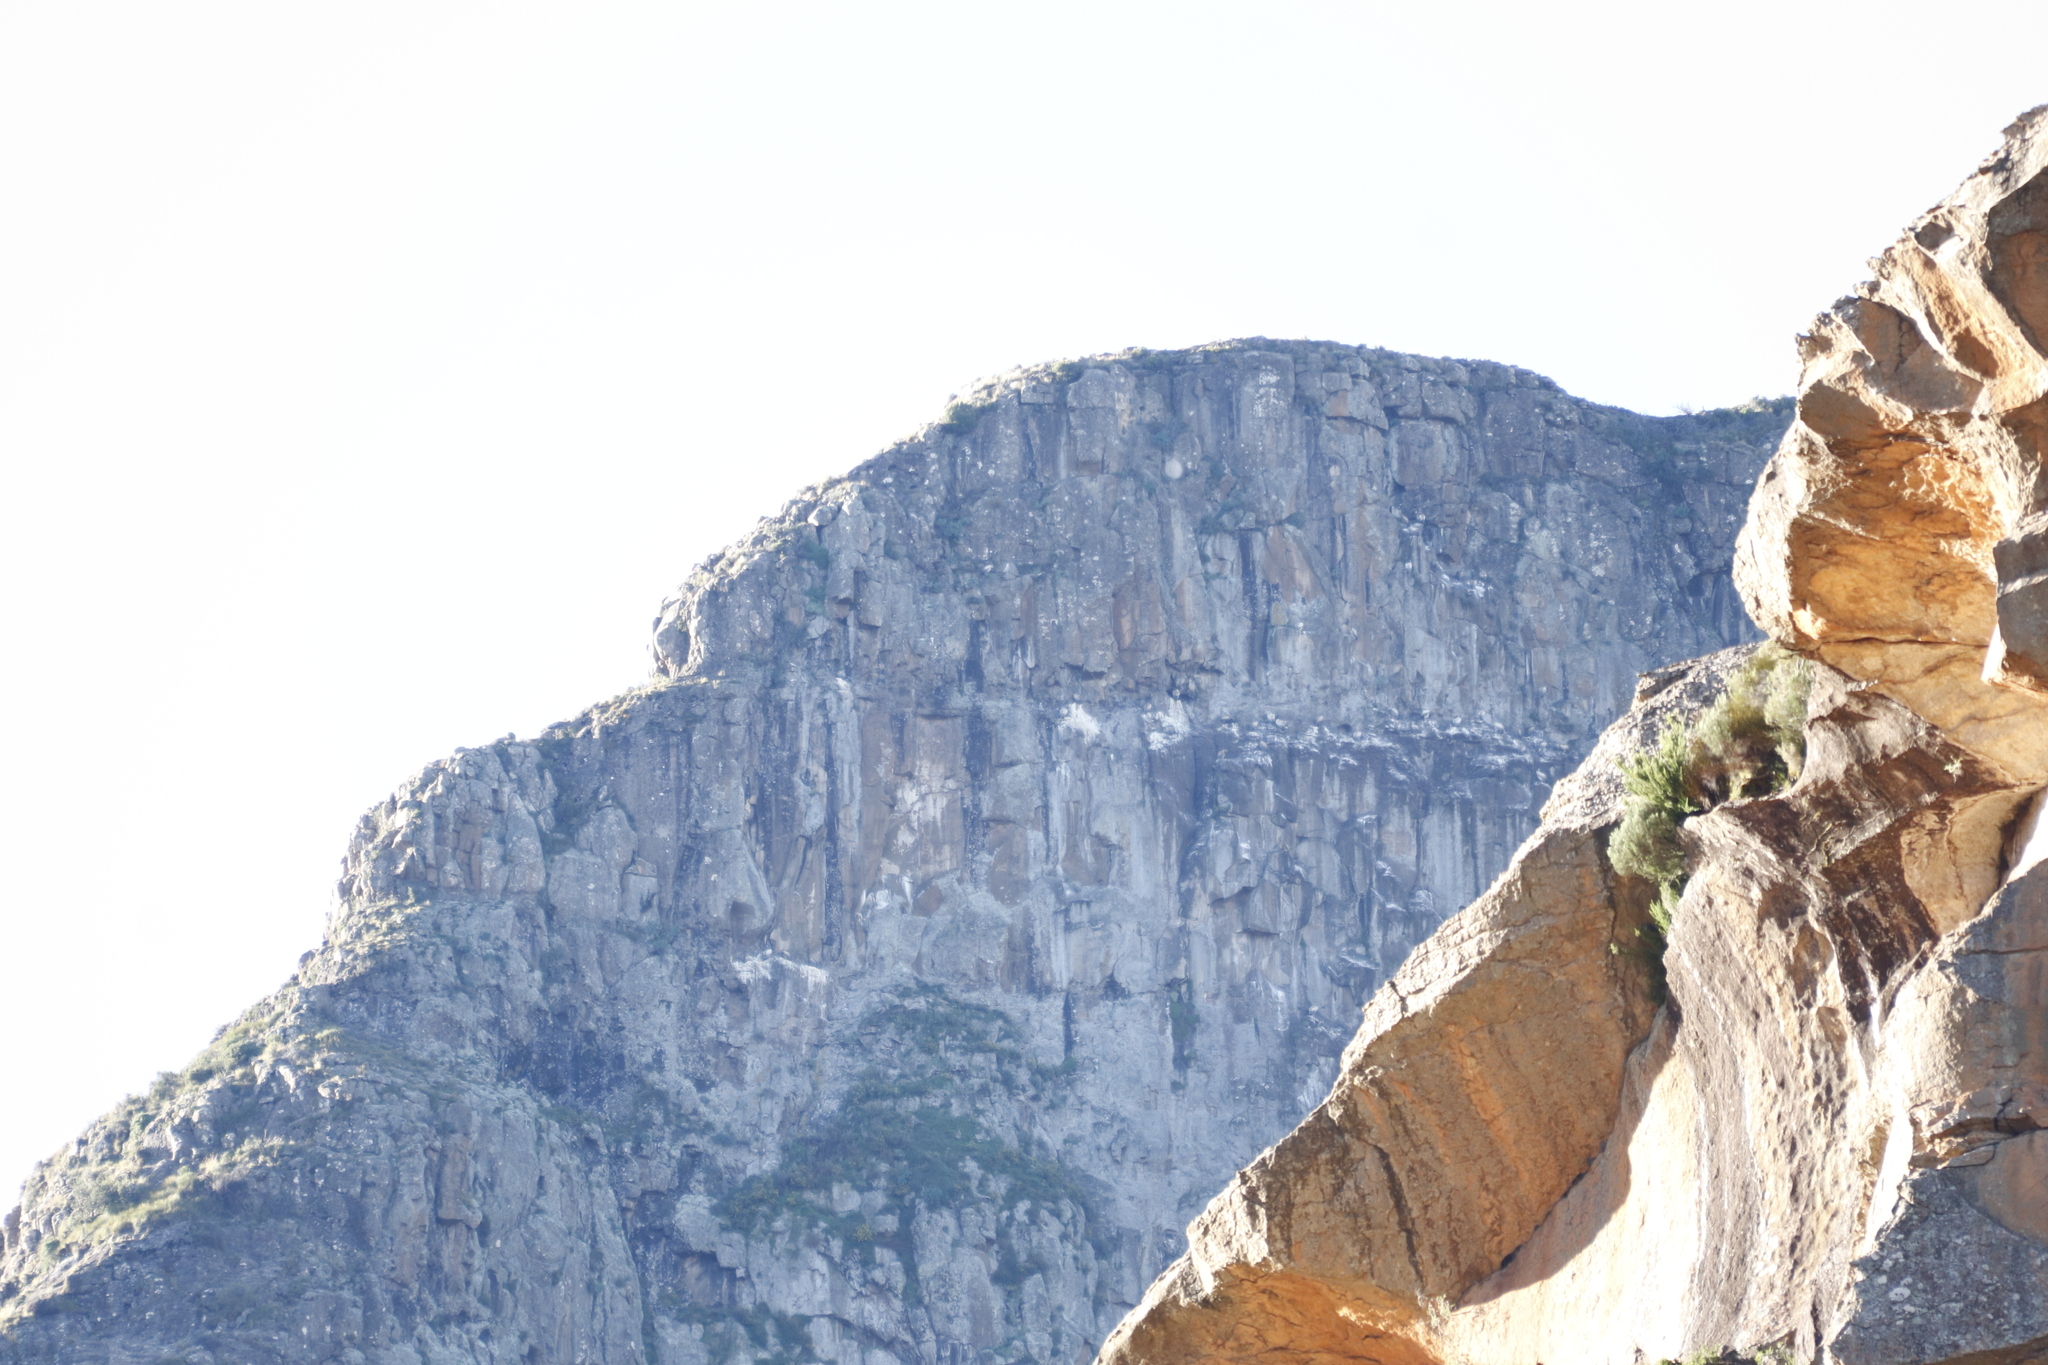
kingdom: Animalia
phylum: Chordata
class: Aves
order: Accipitriformes
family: Accipitridae
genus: Gyps
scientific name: Gyps coprotheres
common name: Cape vulture
